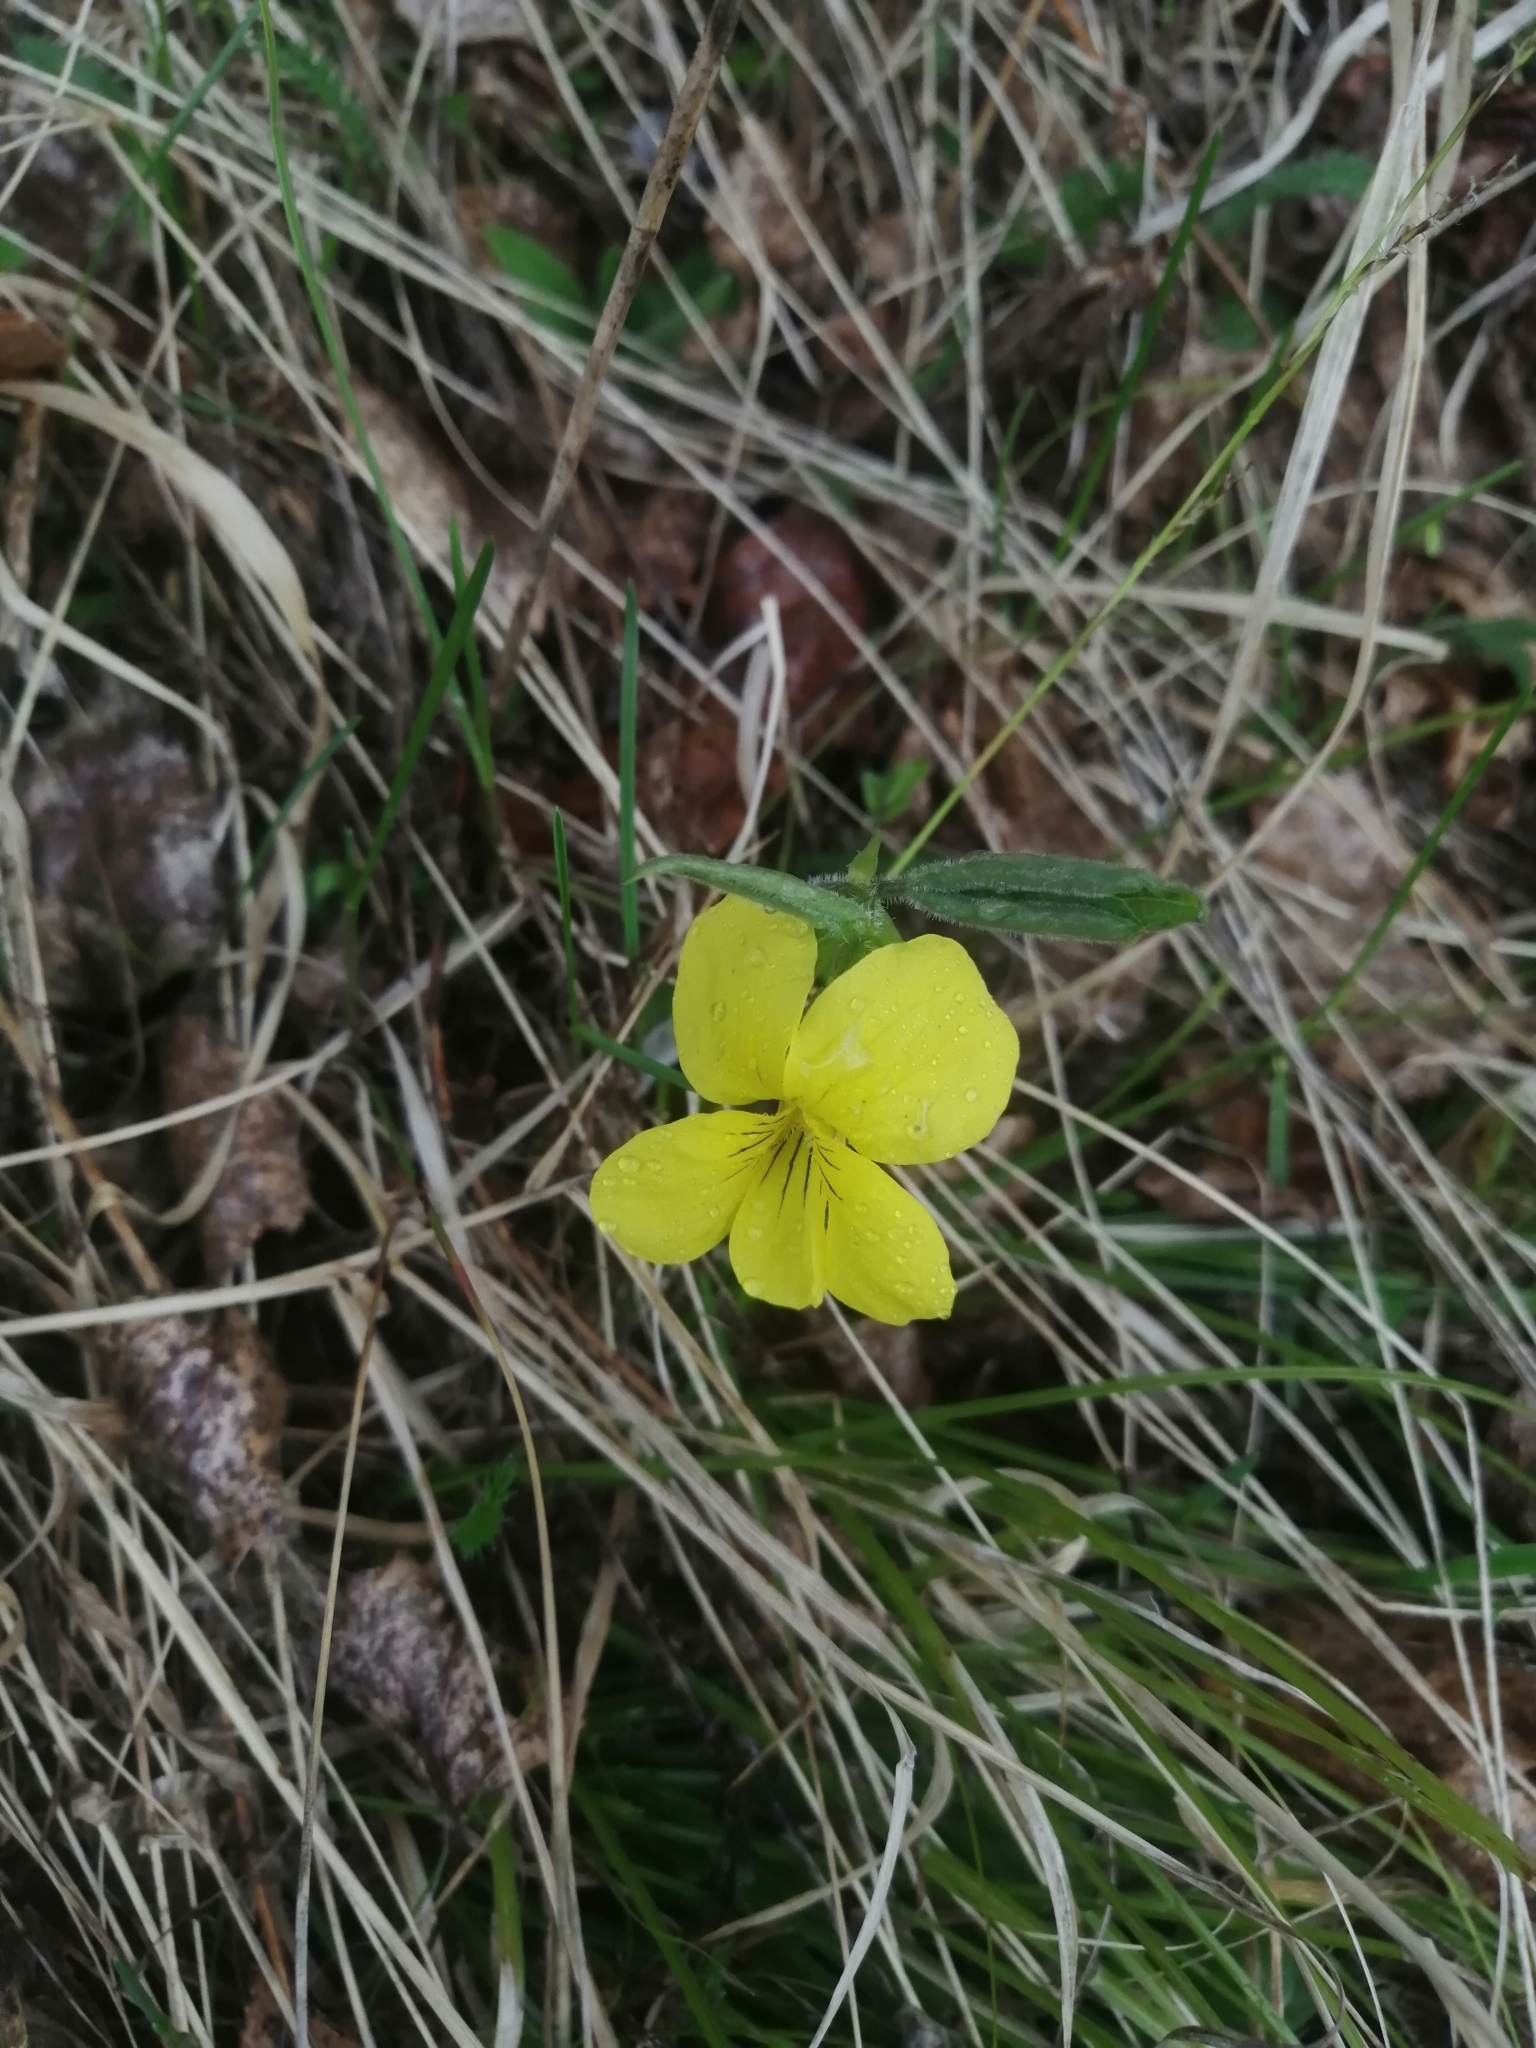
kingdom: Plantae
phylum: Tracheophyta
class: Magnoliopsida
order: Malpighiales
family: Violaceae
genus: Viola
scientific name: Viola uniflora
